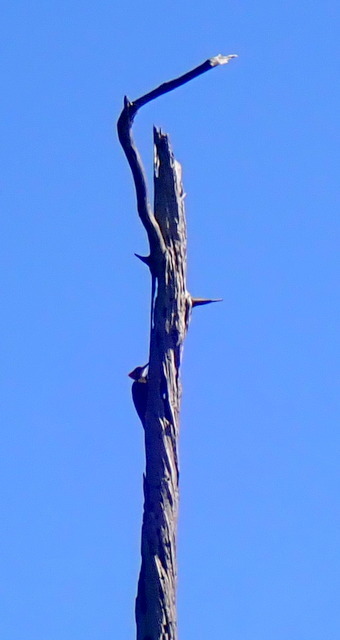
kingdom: Animalia
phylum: Chordata
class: Aves
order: Piciformes
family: Picidae
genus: Dryocopus
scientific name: Dryocopus pileatus
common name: Pileated woodpecker
